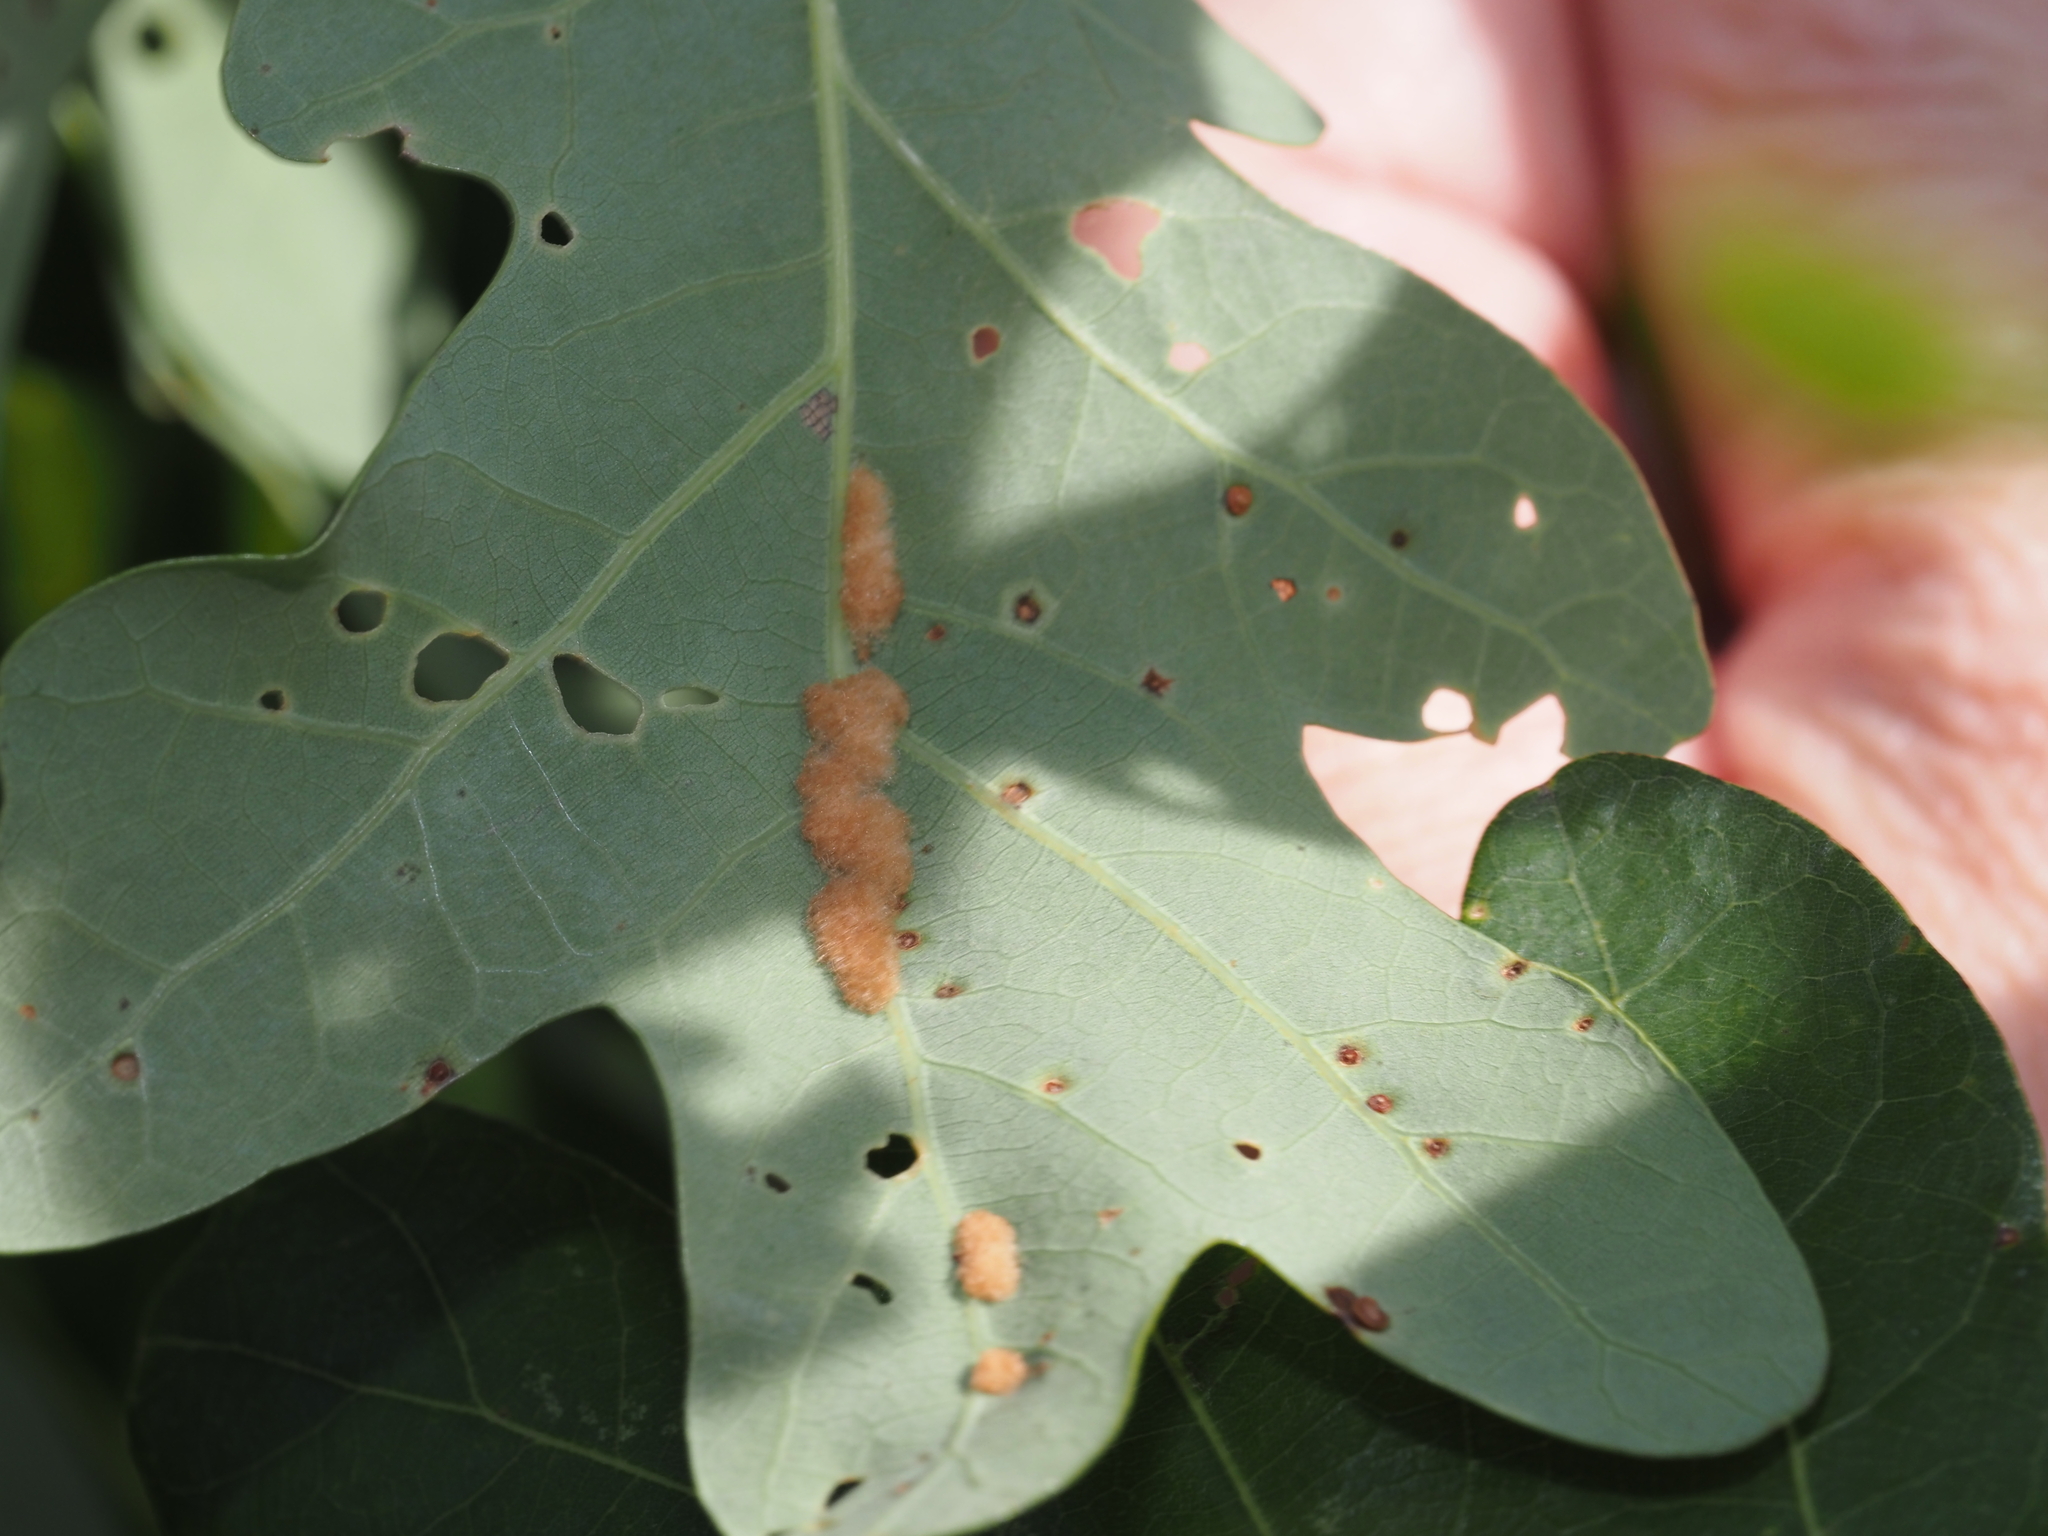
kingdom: Animalia
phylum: Arthropoda
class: Insecta
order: Hymenoptera
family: Cynipidae
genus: Neuroterus
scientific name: Neuroterus quercusverrucarum
